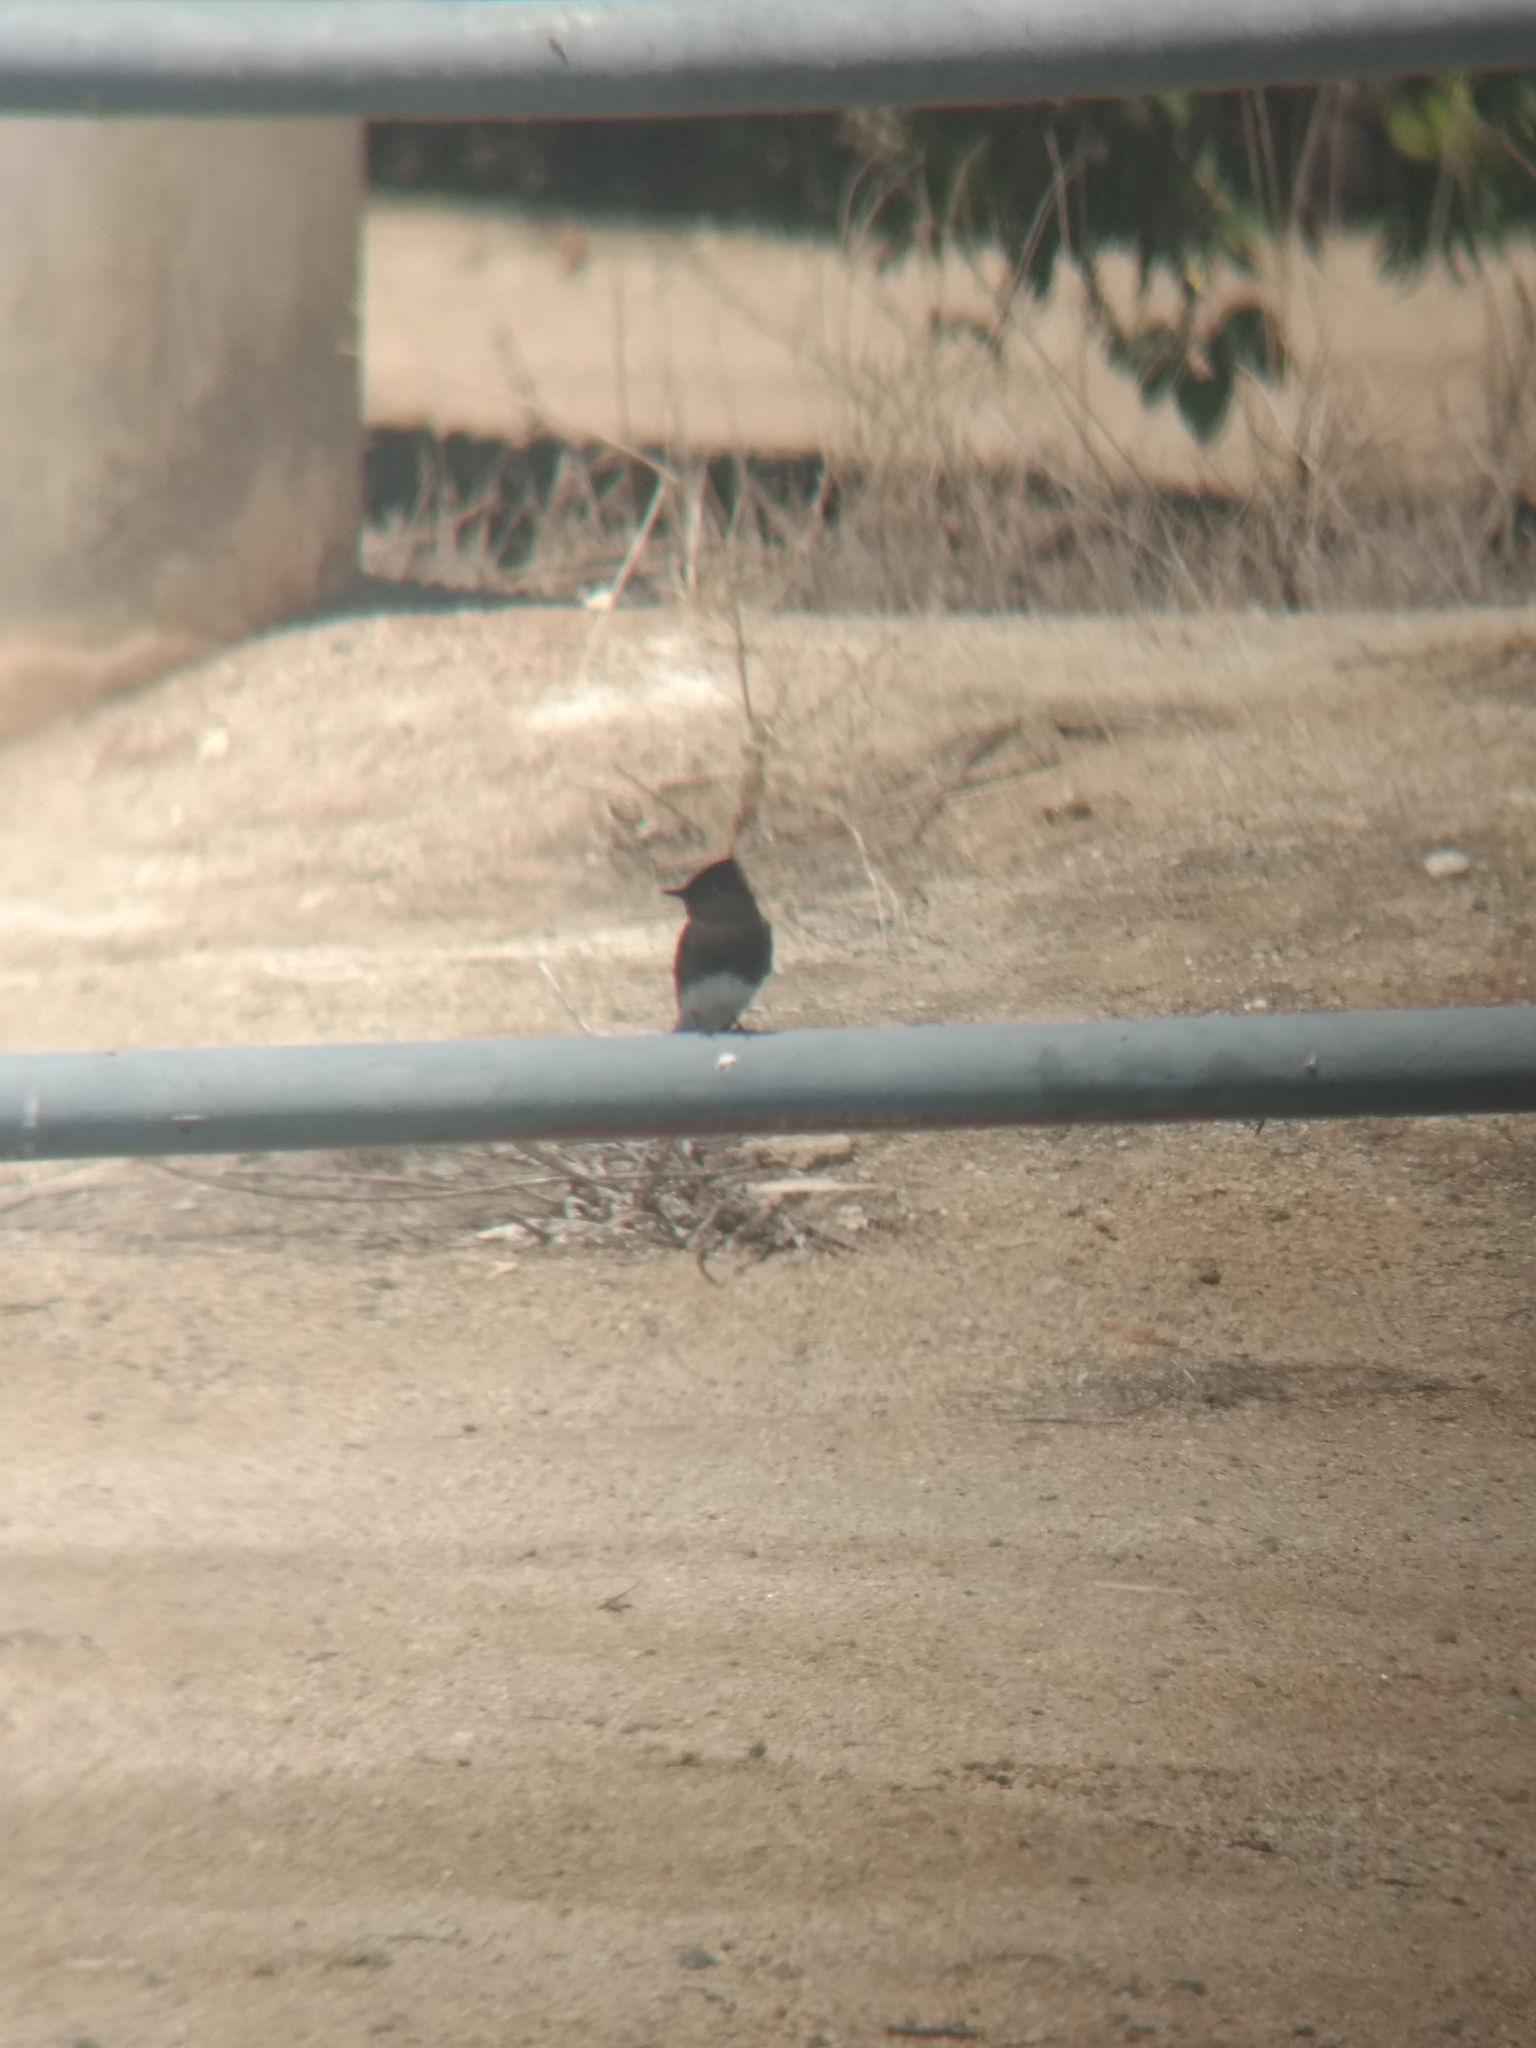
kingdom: Animalia
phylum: Chordata
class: Aves
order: Passeriformes
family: Tyrannidae
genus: Sayornis
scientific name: Sayornis nigricans
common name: Black phoebe
